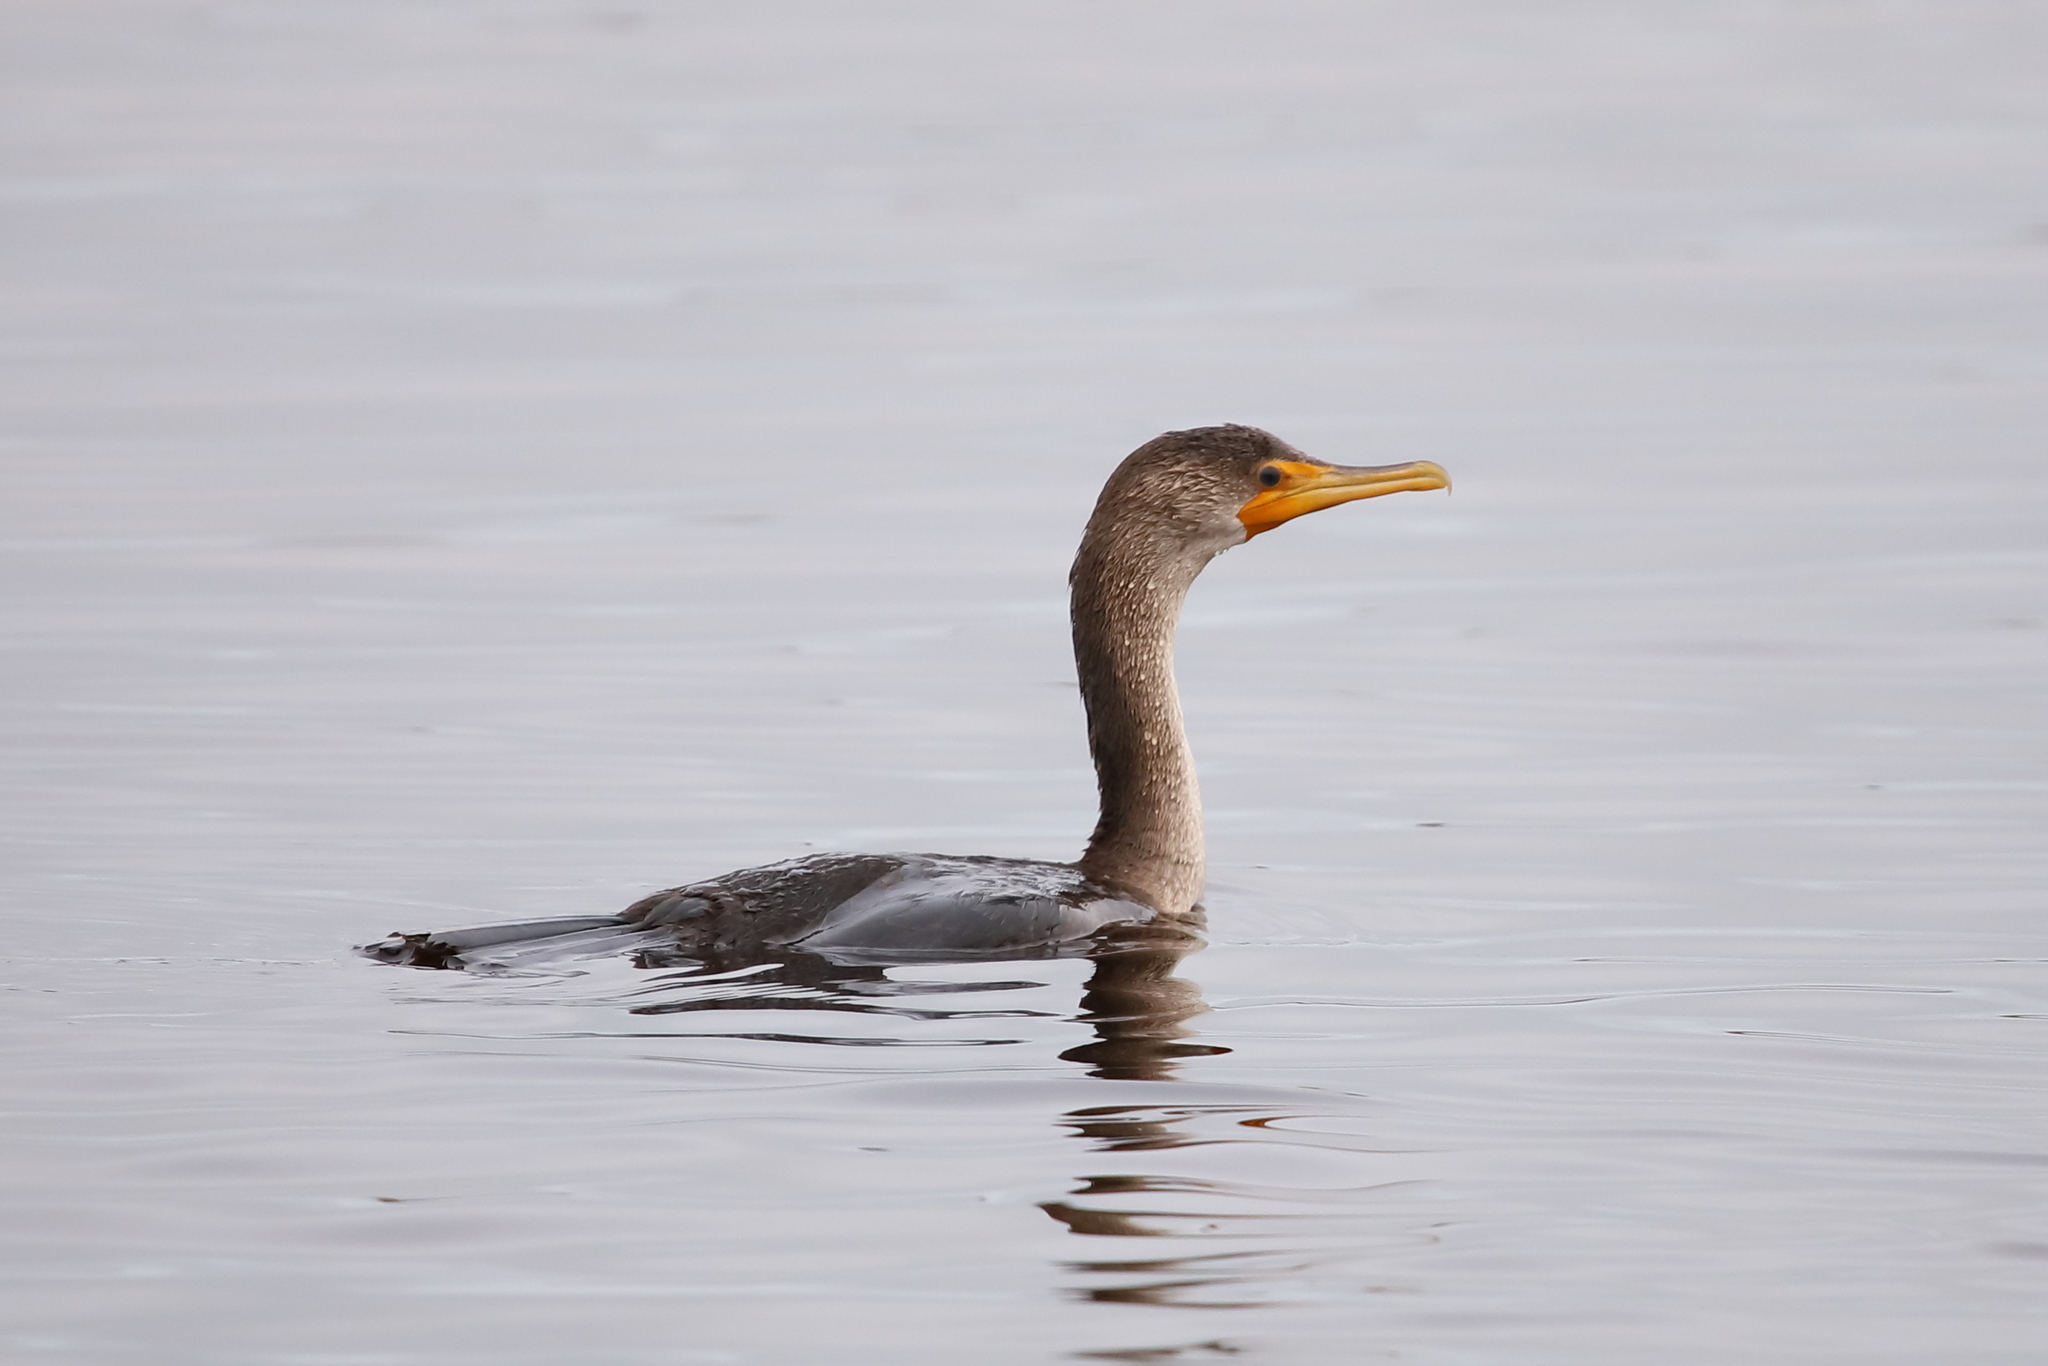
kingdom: Animalia
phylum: Chordata
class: Aves
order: Suliformes
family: Phalacrocoracidae
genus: Phalacrocorax
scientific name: Phalacrocorax auritus
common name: Double-crested cormorant
